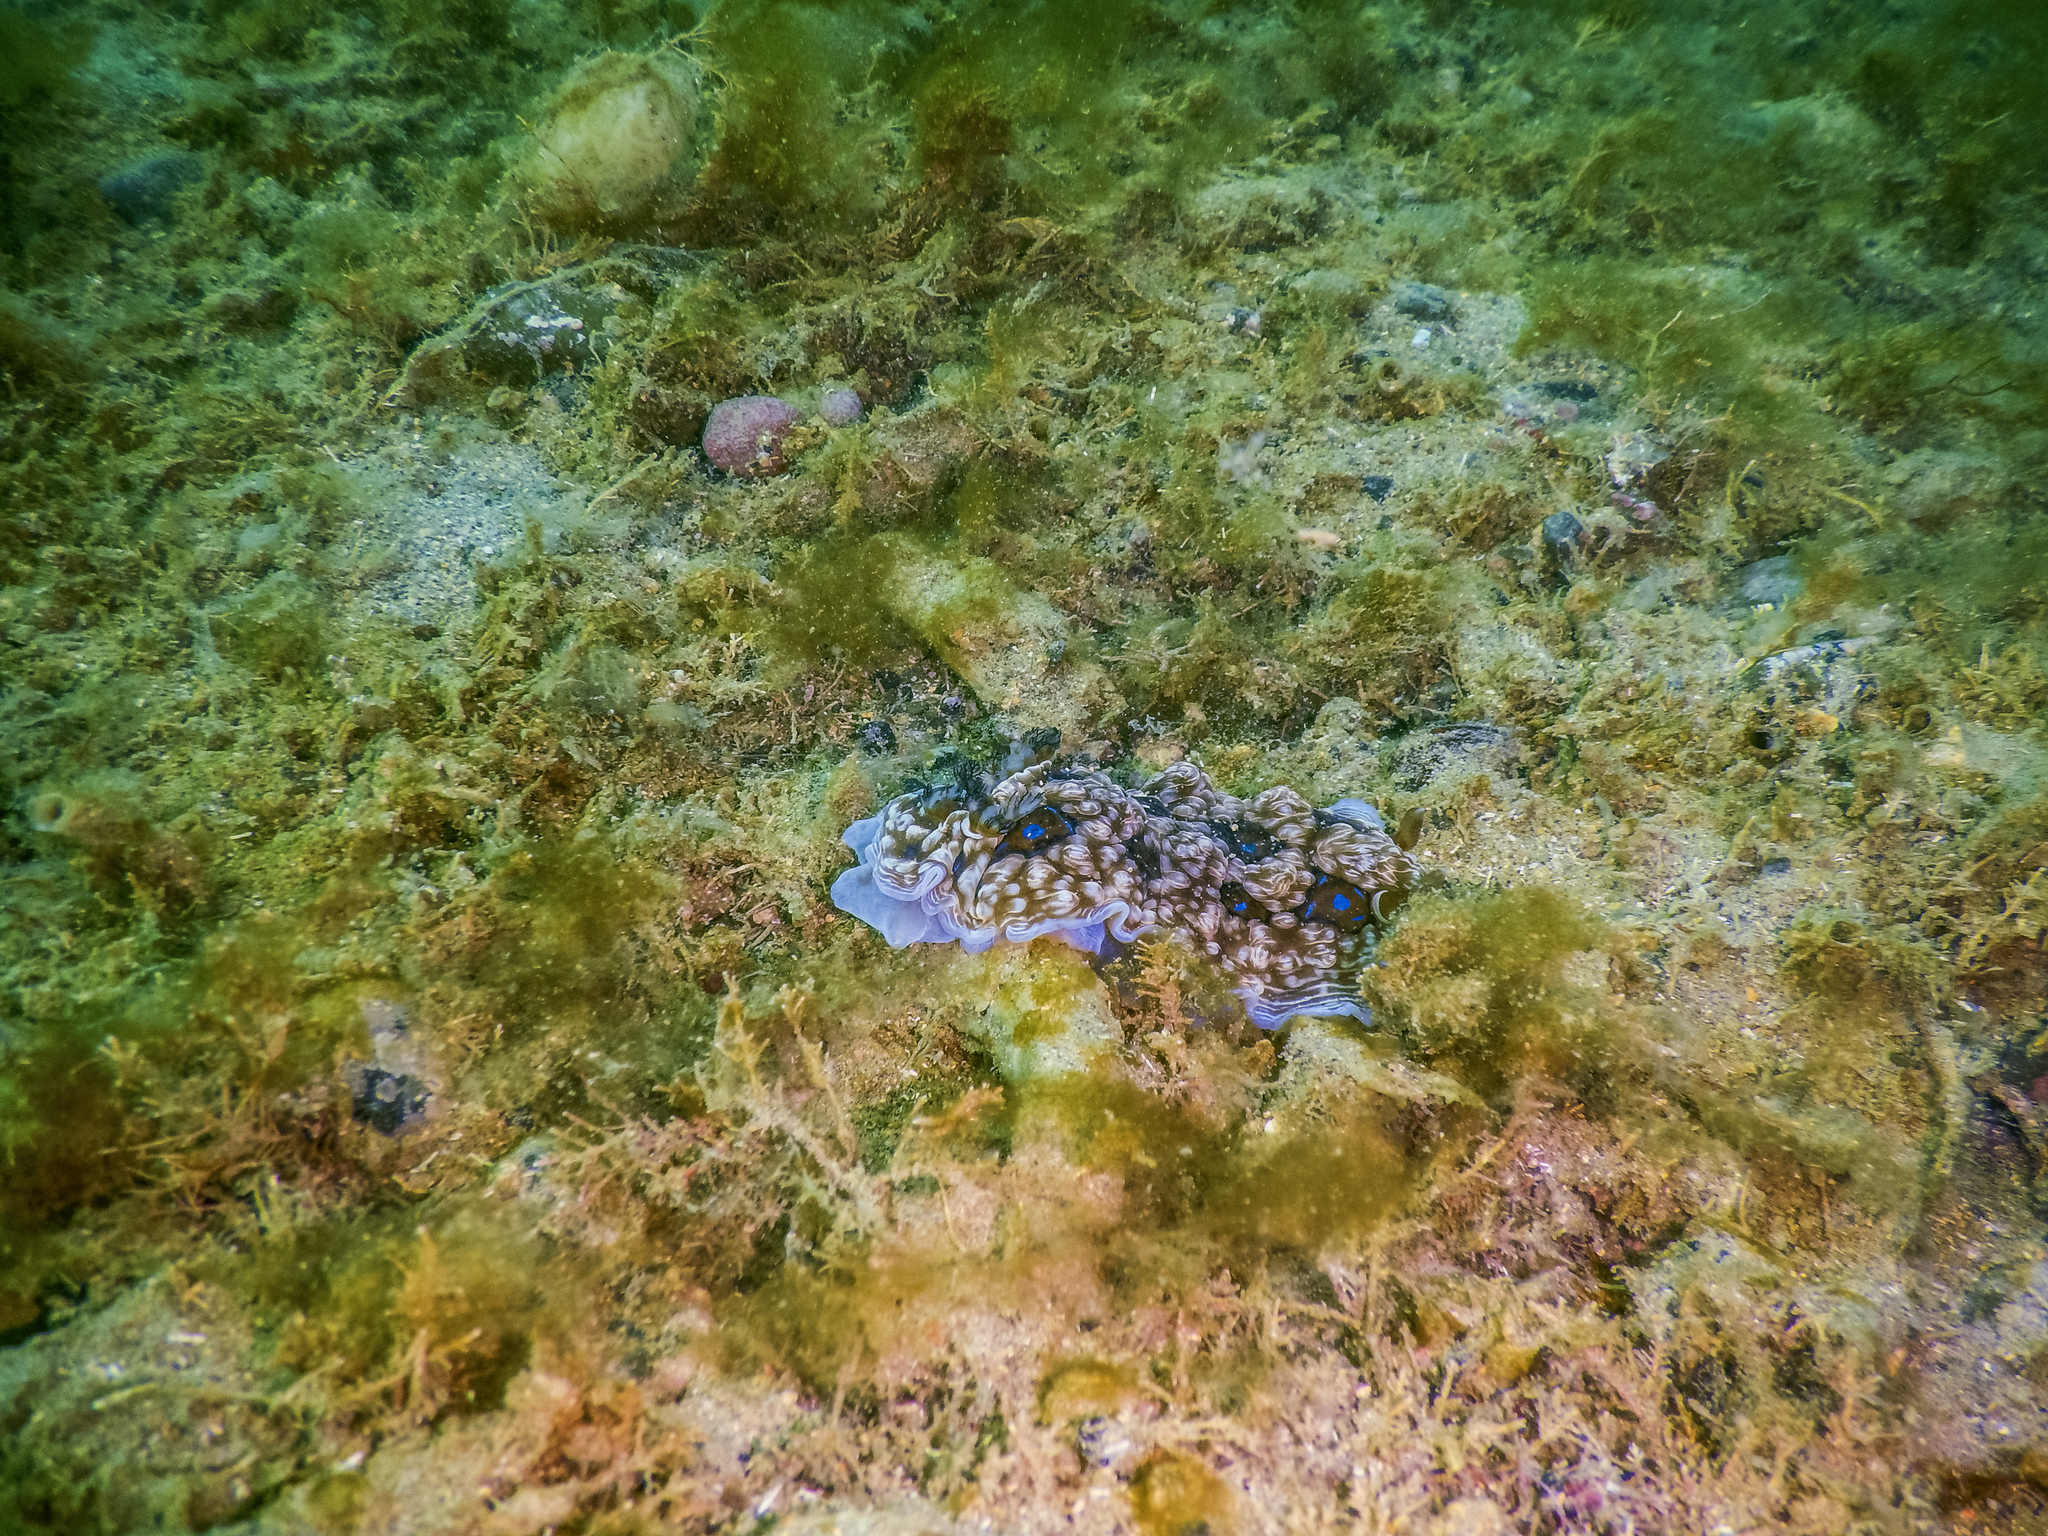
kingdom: Animalia
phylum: Mollusca
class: Gastropoda
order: Nudibranchia
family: Dendrodorididae
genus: Dendrodoris
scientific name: Dendrodoris krusensternii
